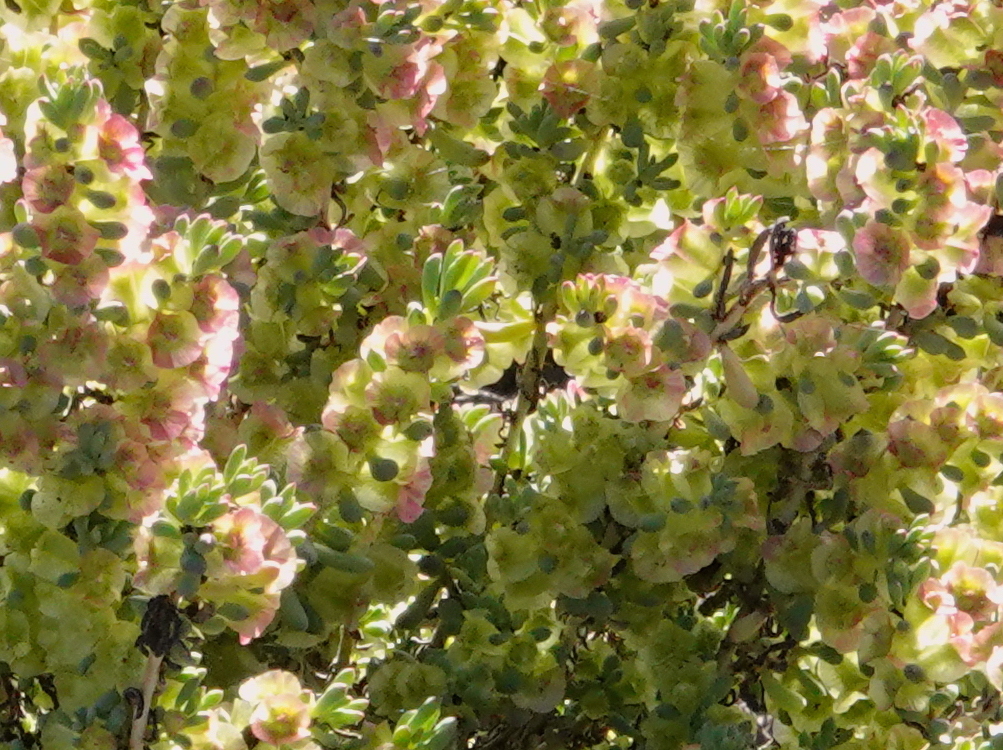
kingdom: Plantae
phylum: Tracheophyta
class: Magnoliopsida
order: Caryophyllales
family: Amaranthaceae
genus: Maireana
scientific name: Maireana erioclada
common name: Rosy bluebush
